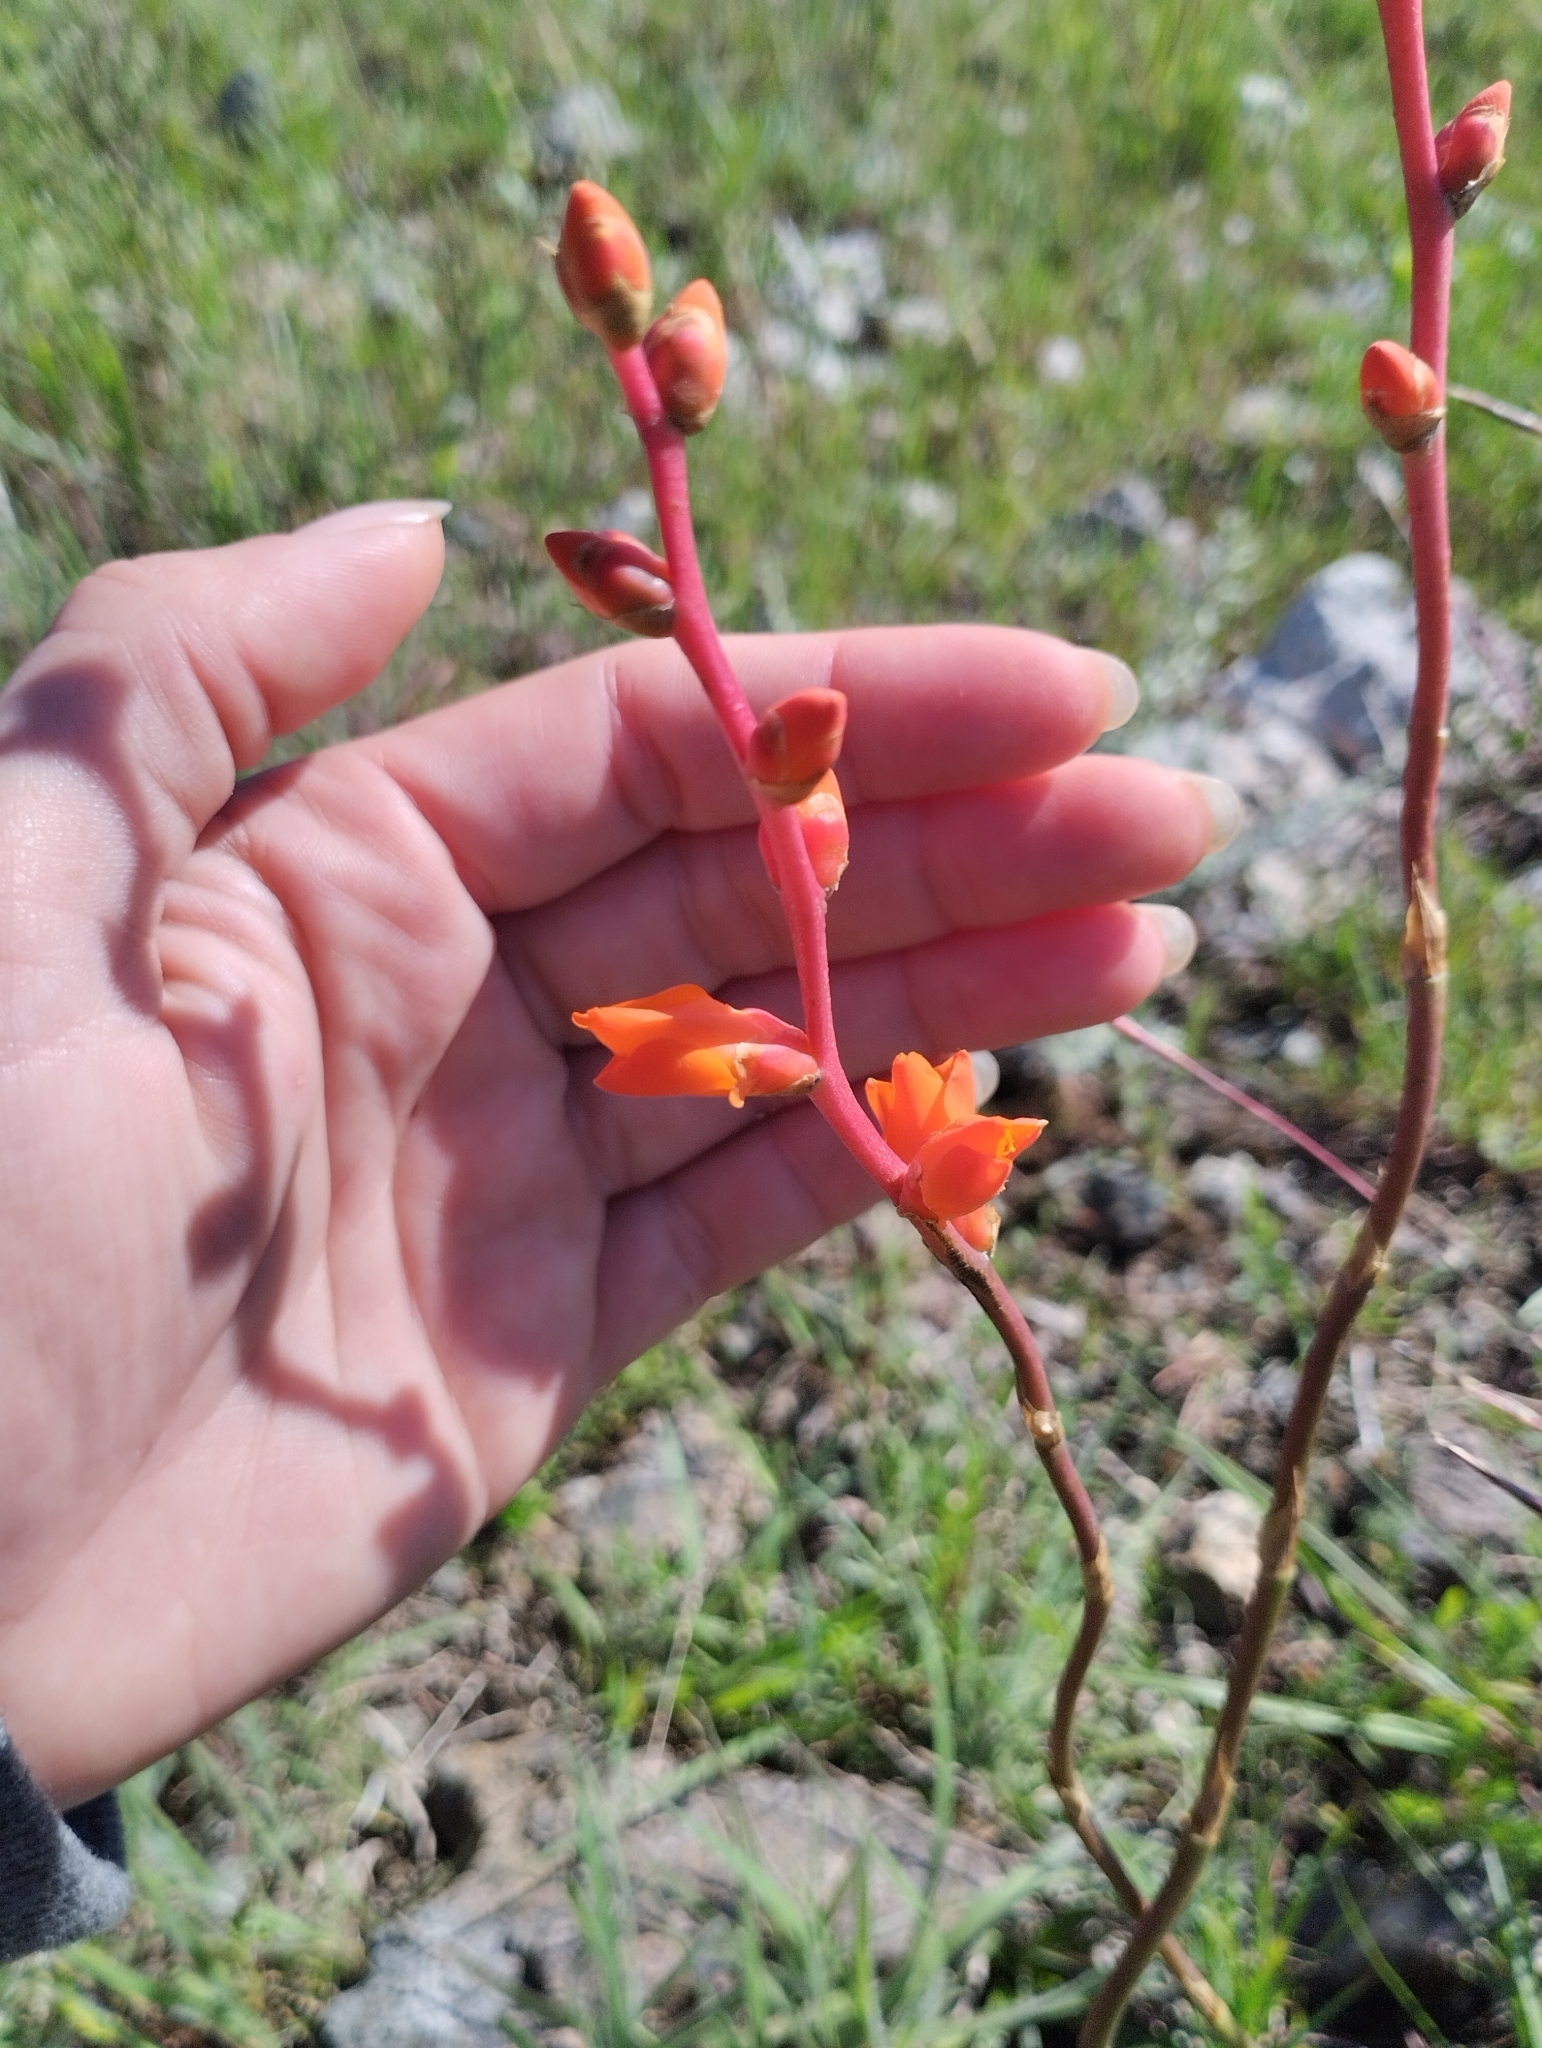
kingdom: Plantae
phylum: Tracheophyta
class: Liliopsida
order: Poales
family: Bromeliaceae
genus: Dyckia
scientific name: Dyckia remotiflora
